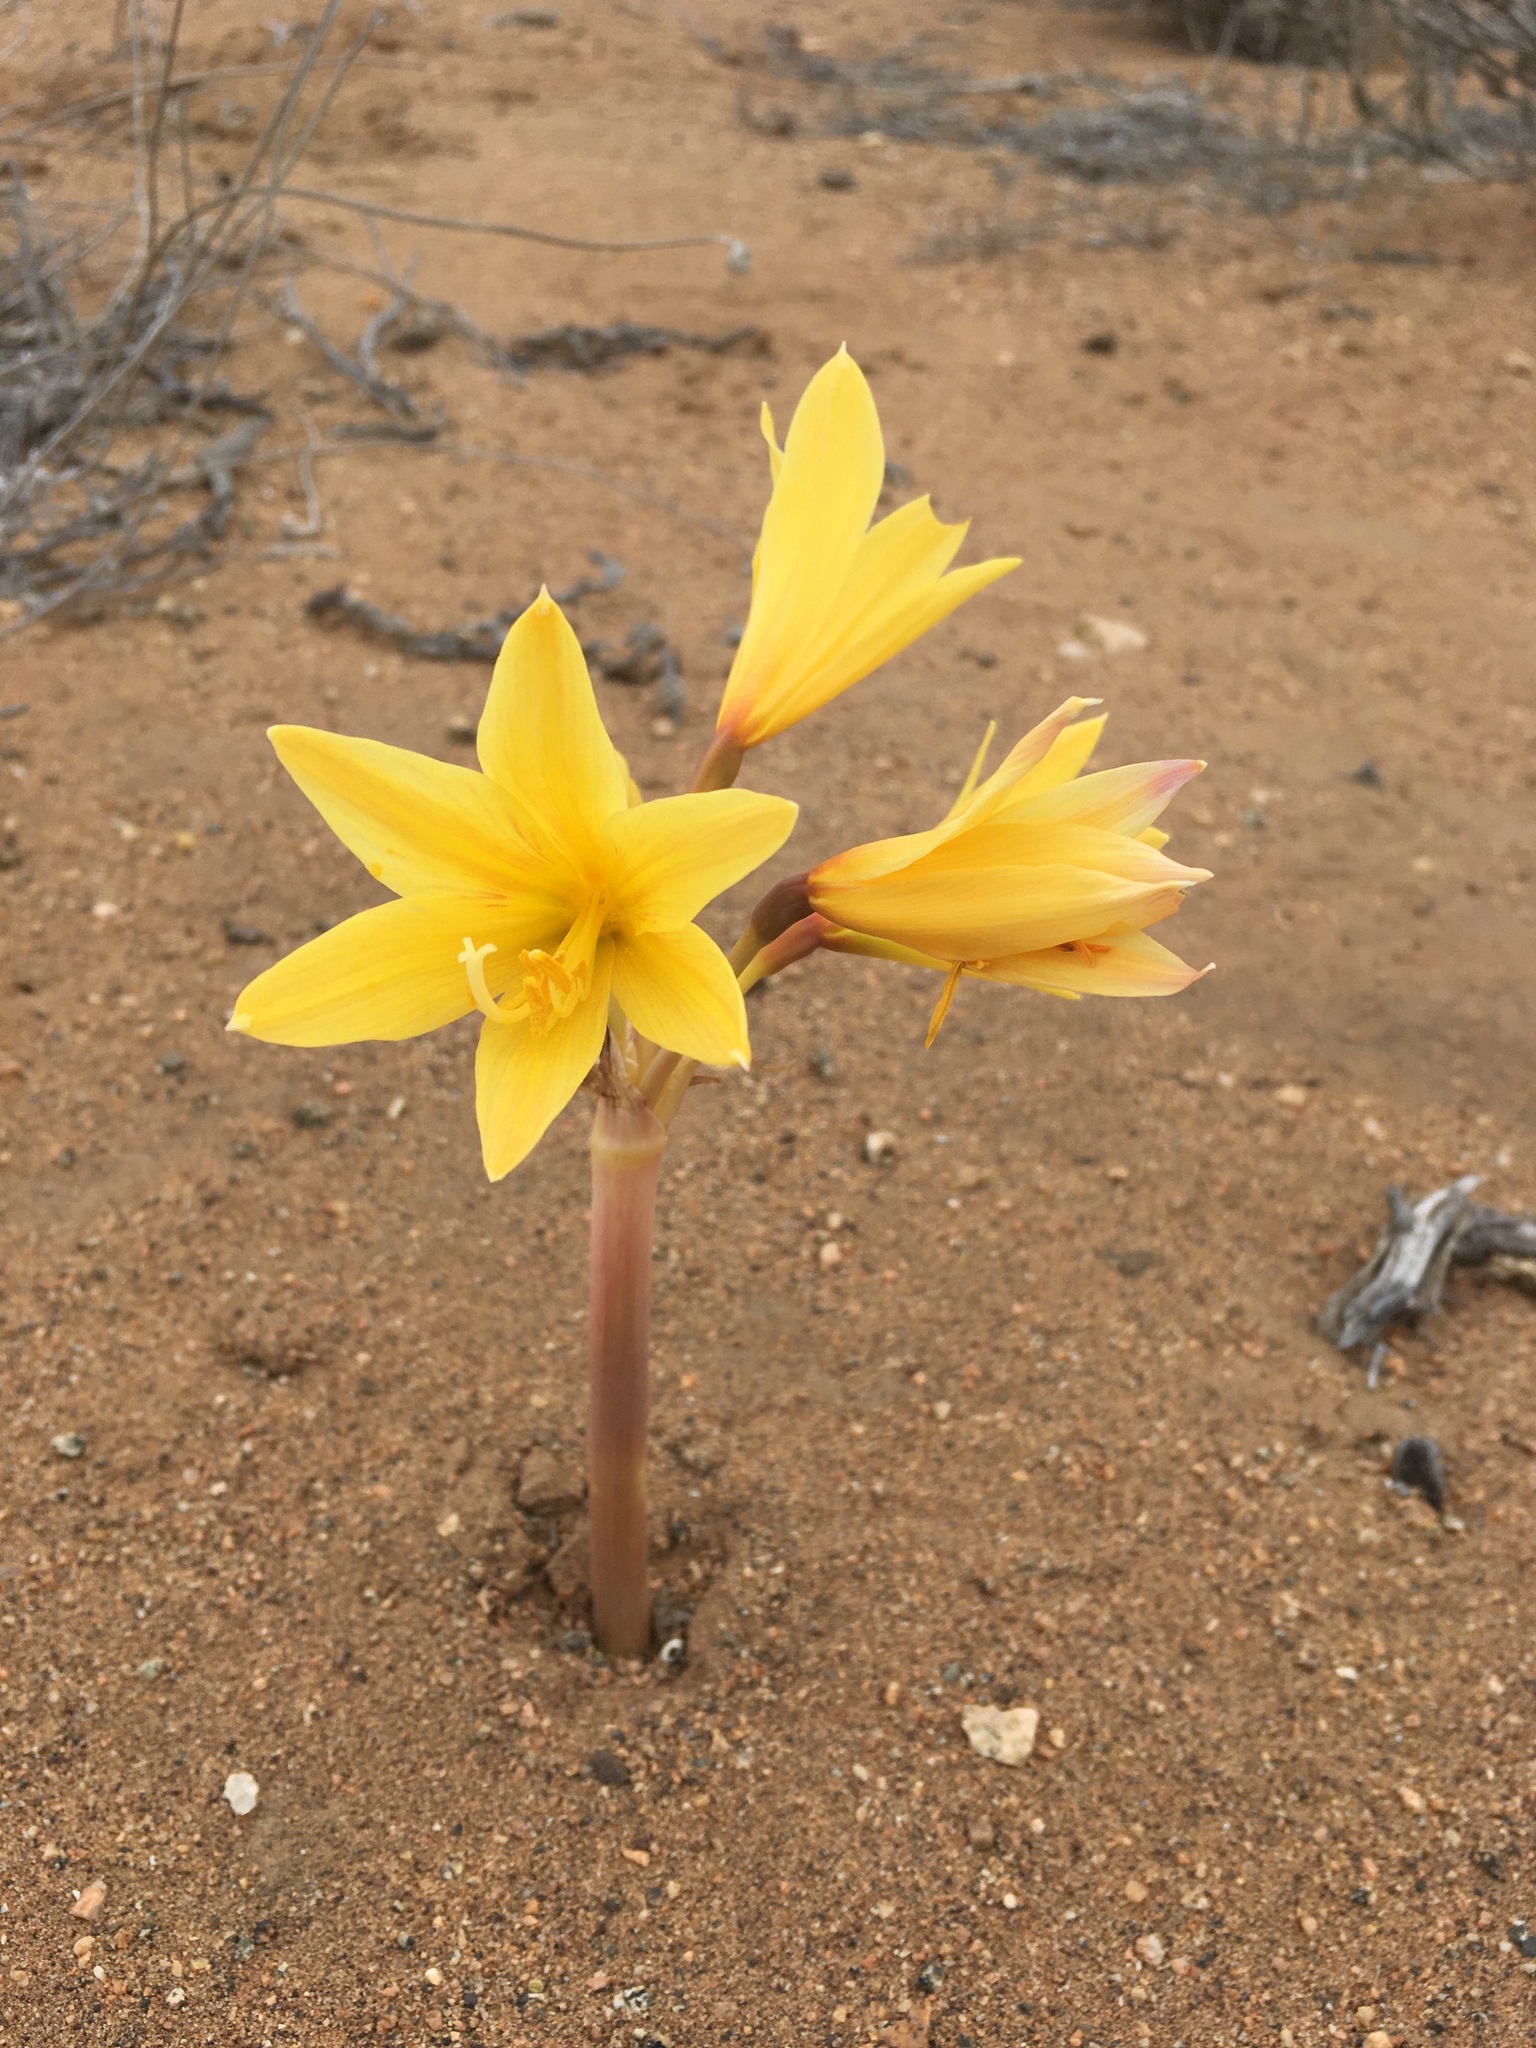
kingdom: Plantae
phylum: Tracheophyta
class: Liliopsida
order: Asparagales
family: Amaryllidaceae
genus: Zephyranthes
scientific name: Zephyranthes bagnoldii
